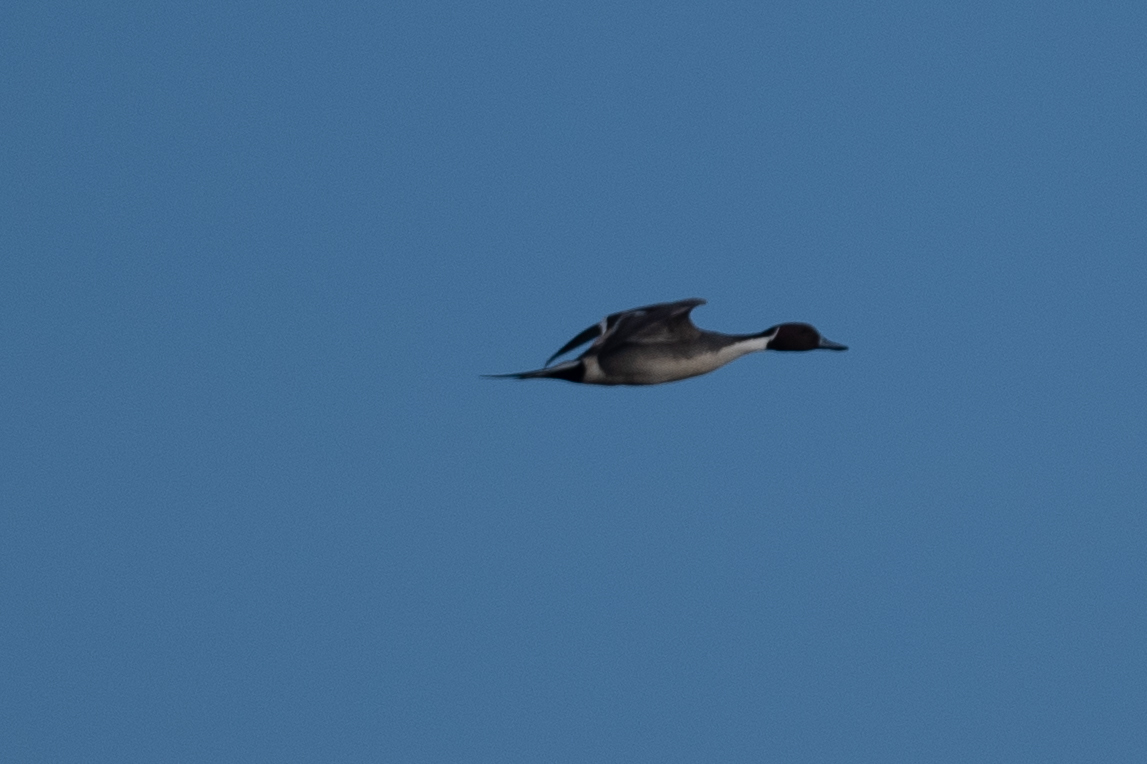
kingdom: Animalia
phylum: Chordata
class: Aves
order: Anseriformes
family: Anatidae
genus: Anas
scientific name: Anas acuta
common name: Northern pintail
